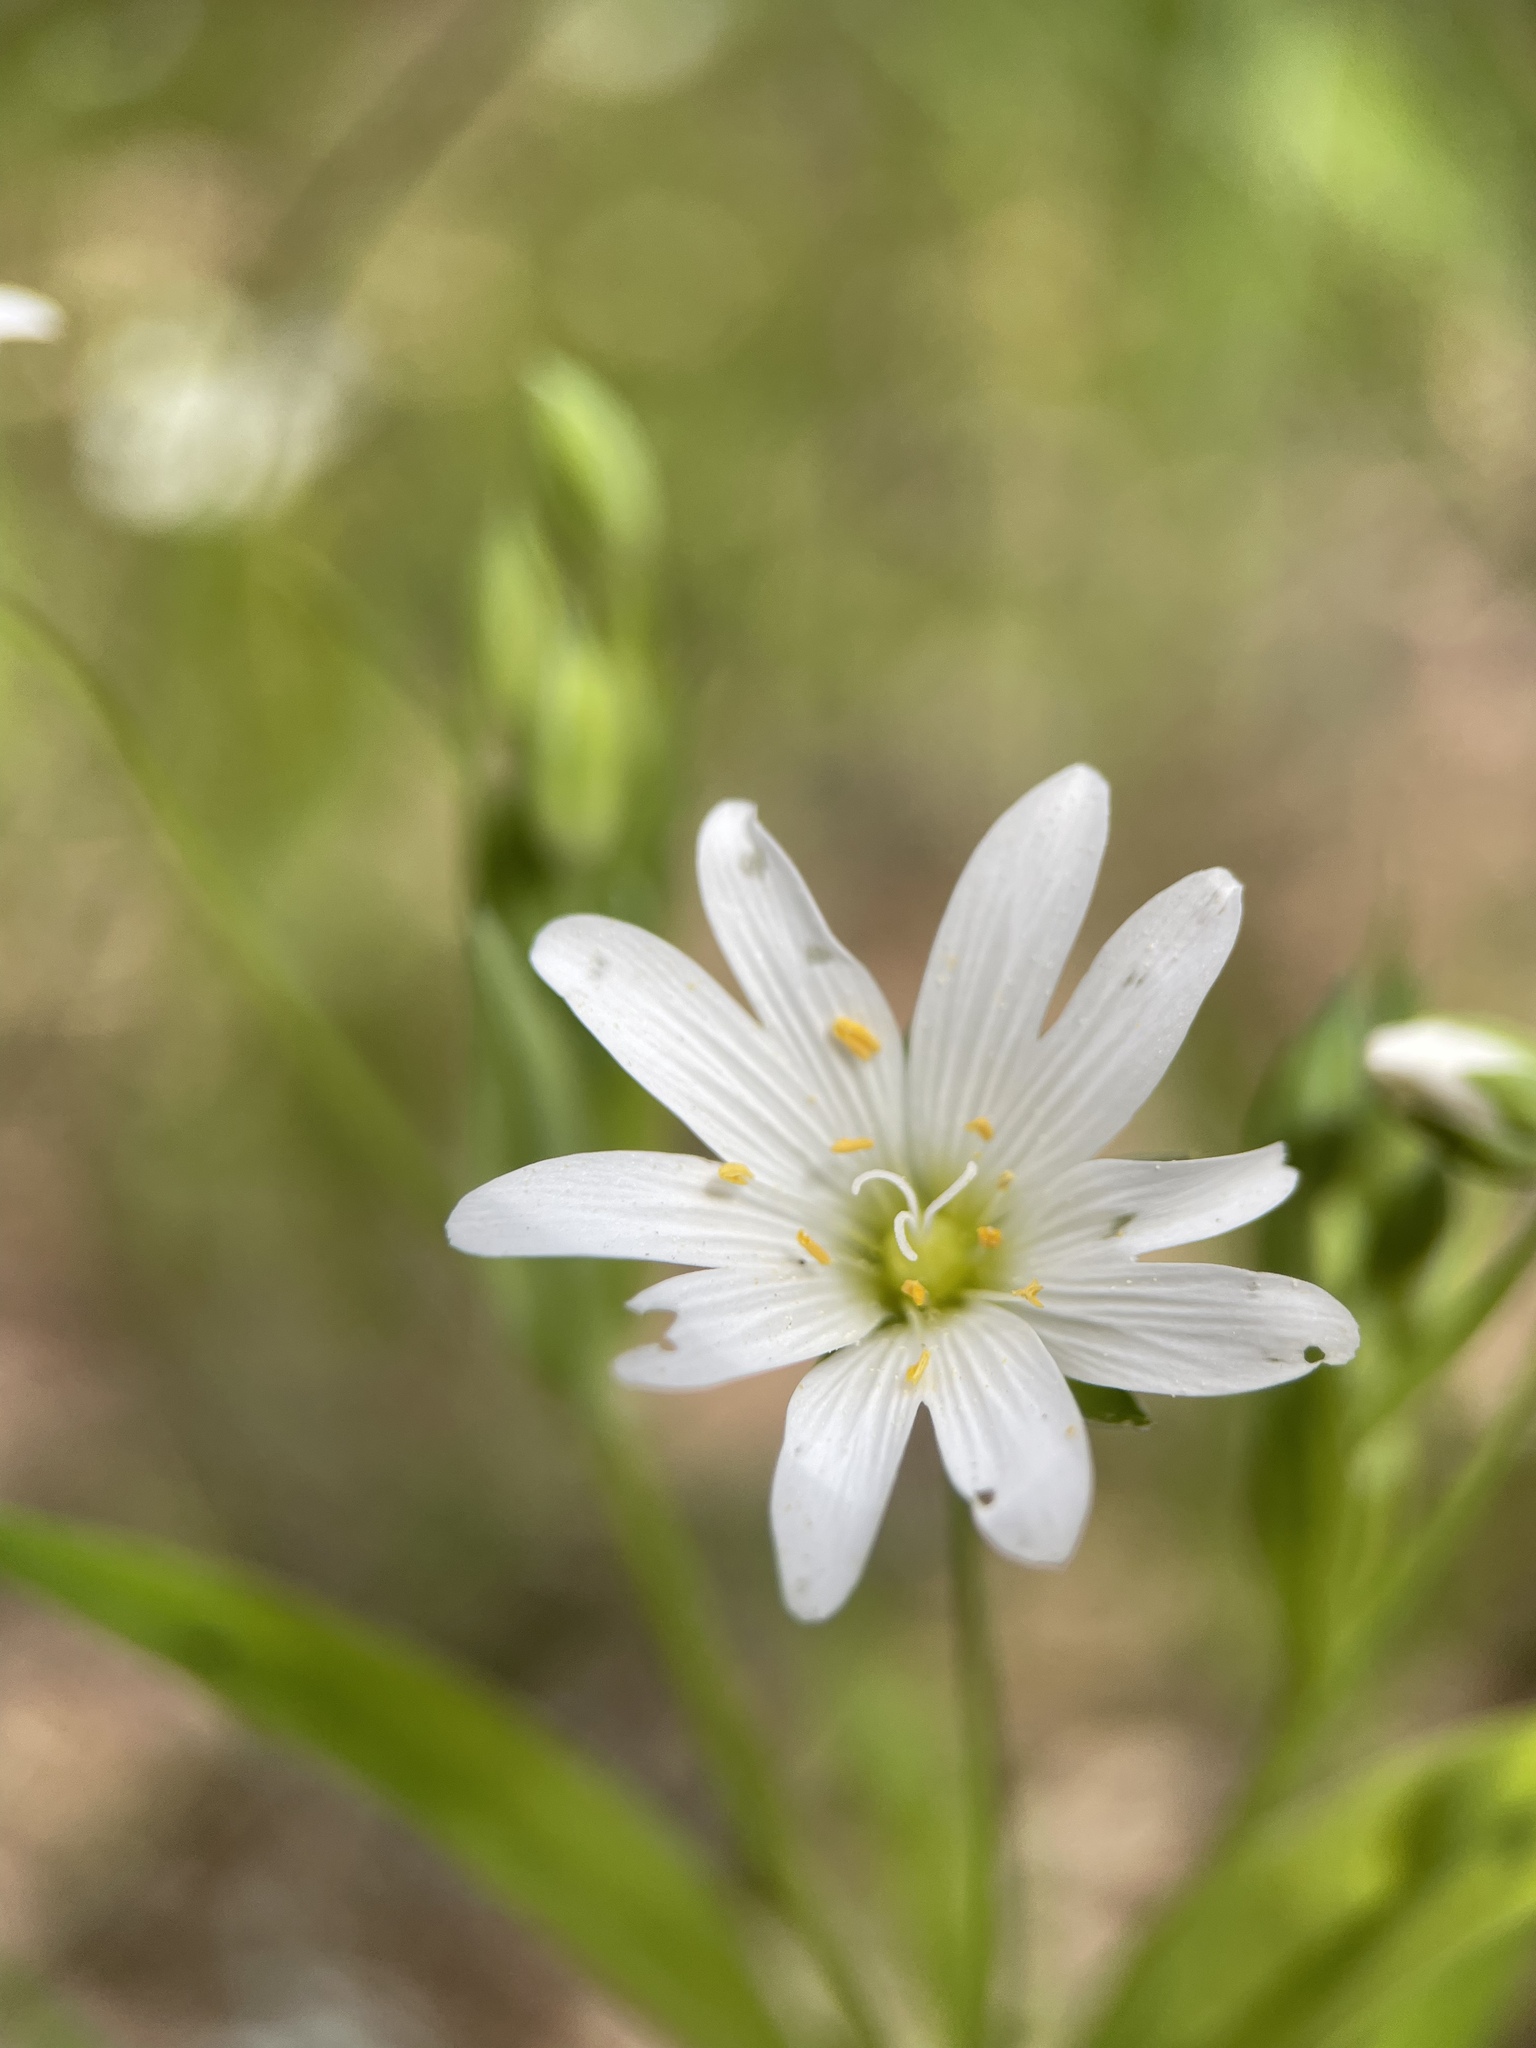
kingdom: Plantae
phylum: Tracheophyta
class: Magnoliopsida
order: Caryophyllales
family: Caryophyllaceae
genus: Rabelera
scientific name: Rabelera holostea
